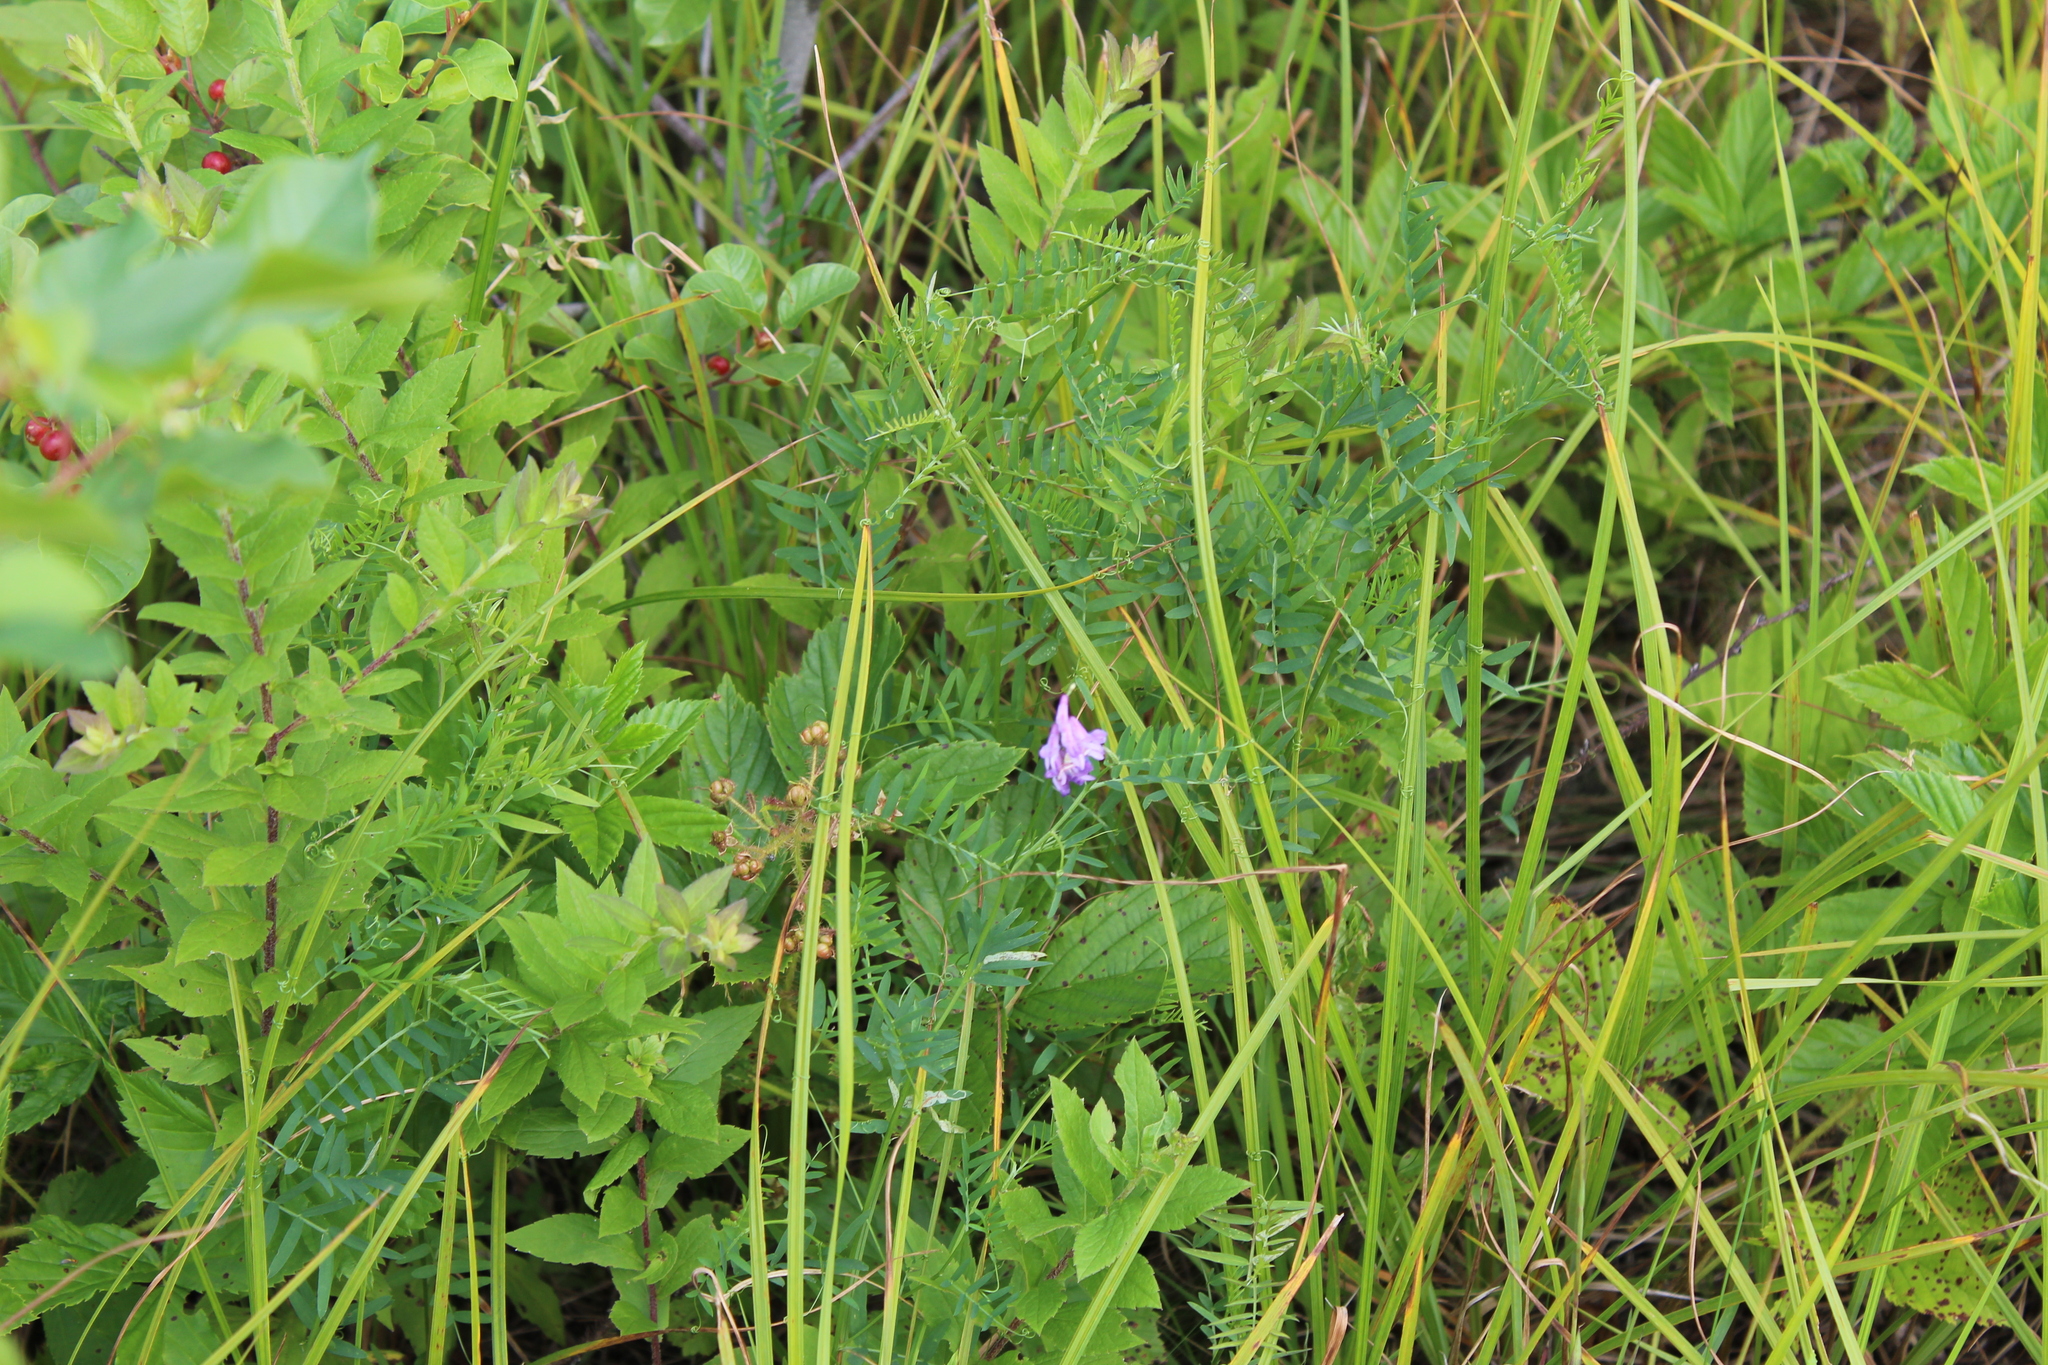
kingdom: Plantae
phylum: Tracheophyta
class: Magnoliopsida
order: Fabales
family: Fabaceae
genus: Vicia
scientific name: Vicia cracca
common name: Bird vetch
